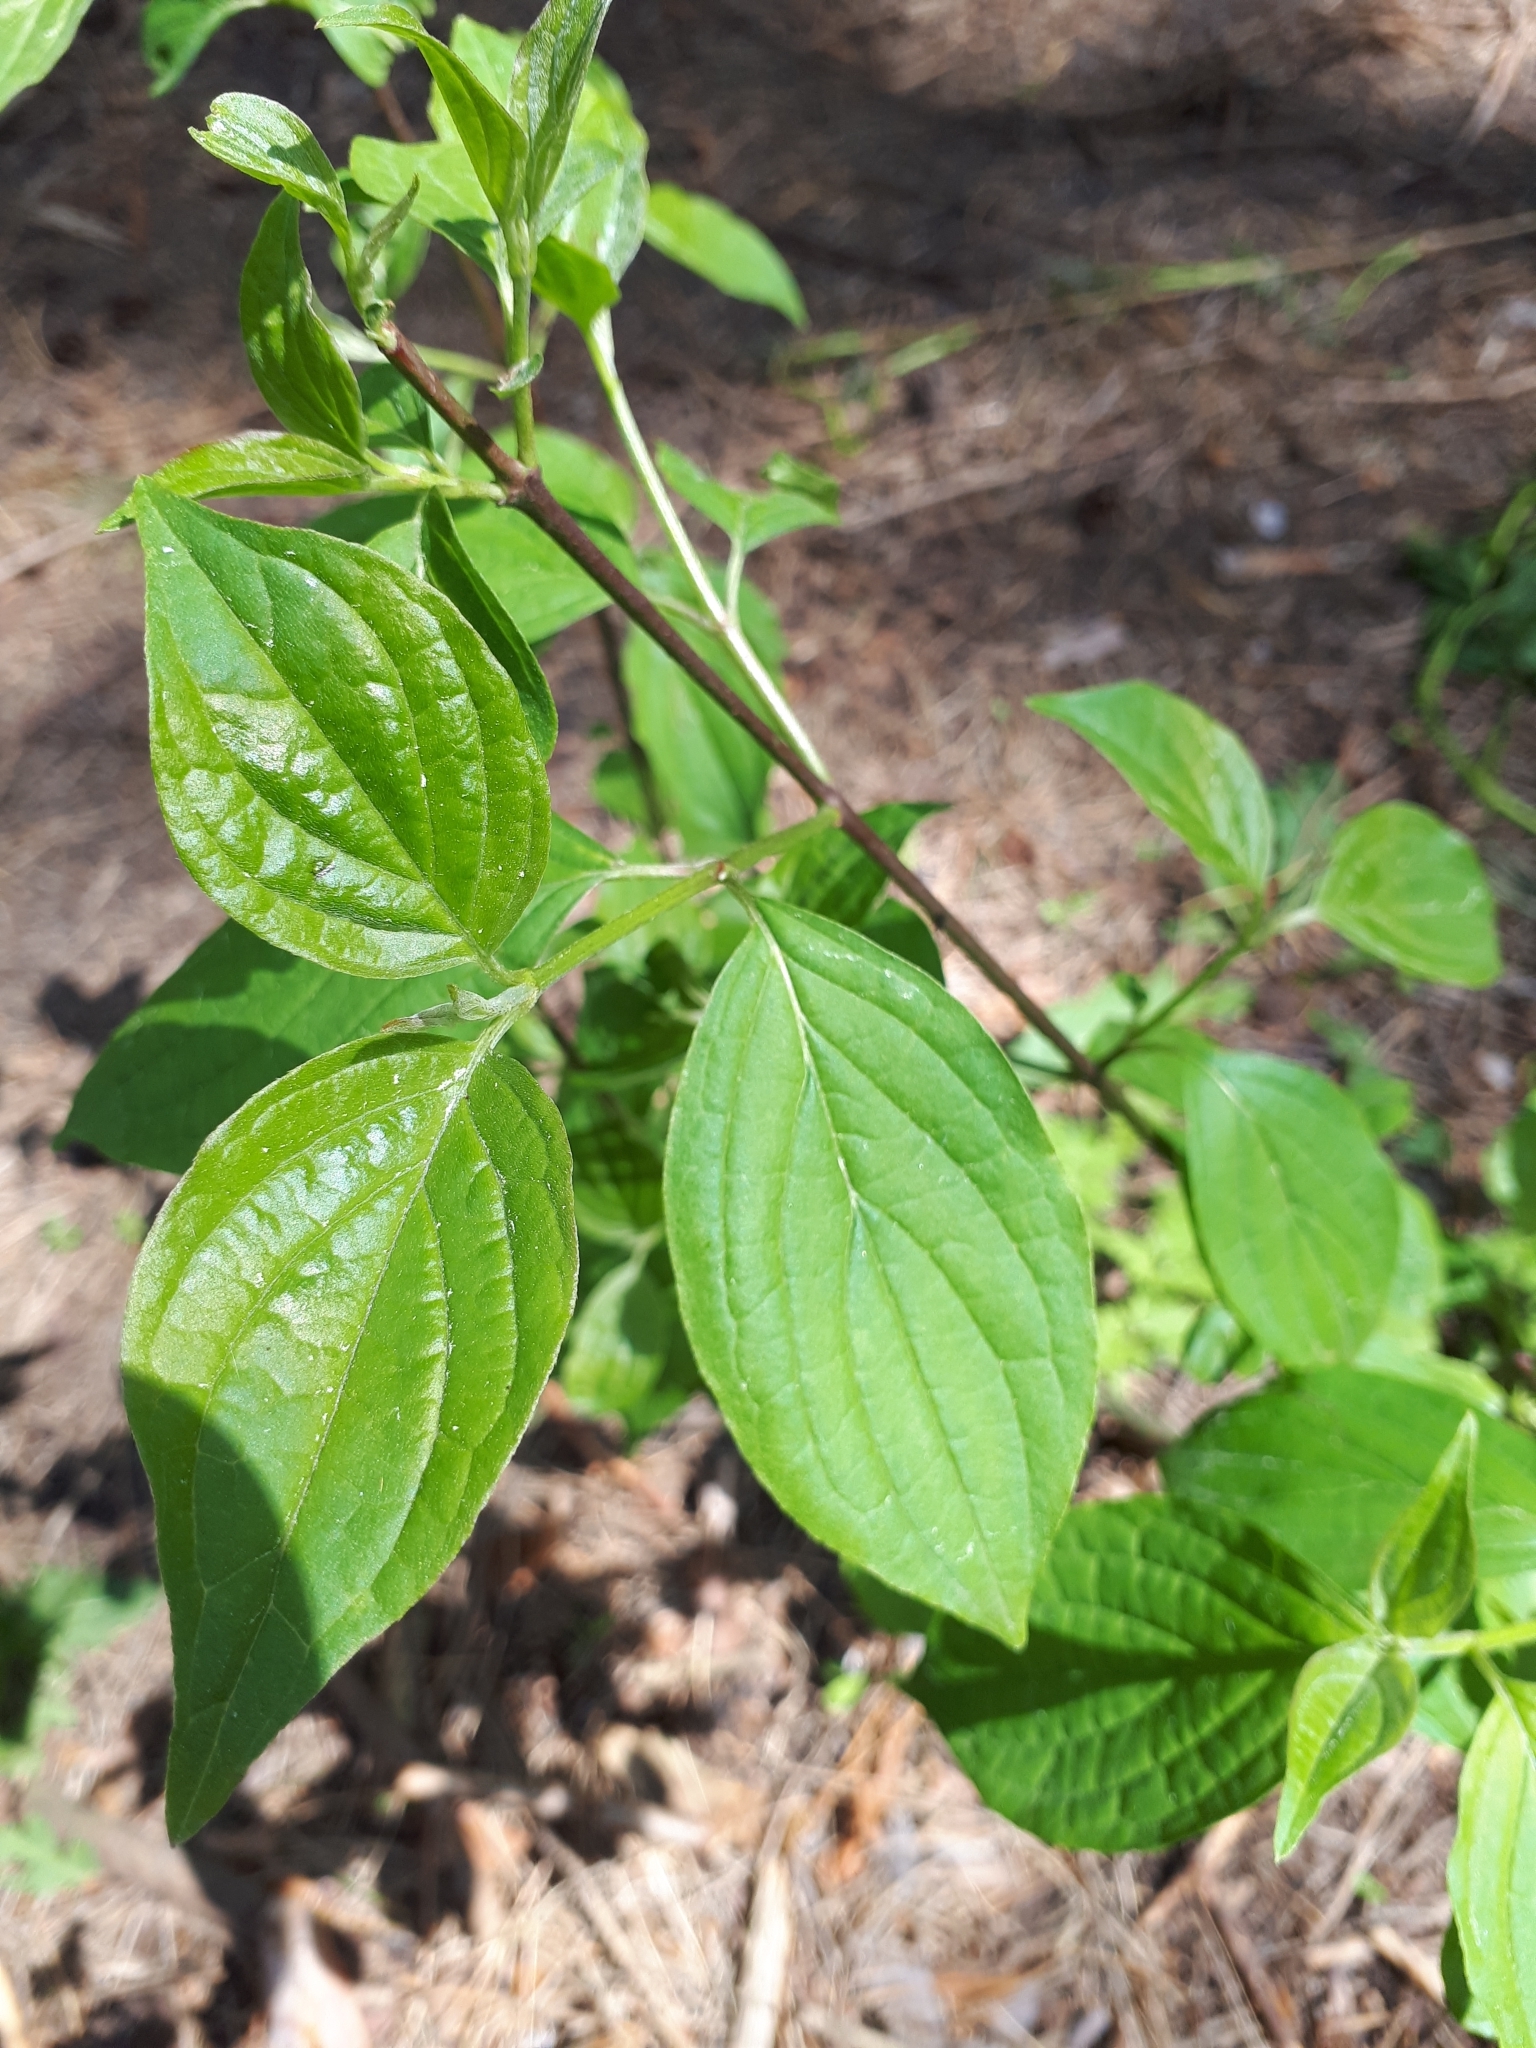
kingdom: Plantae
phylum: Tracheophyta
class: Magnoliopsida
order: Cornales
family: Cornaceae
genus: Cornus
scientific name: Cornus sanguinea
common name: Dogwood
